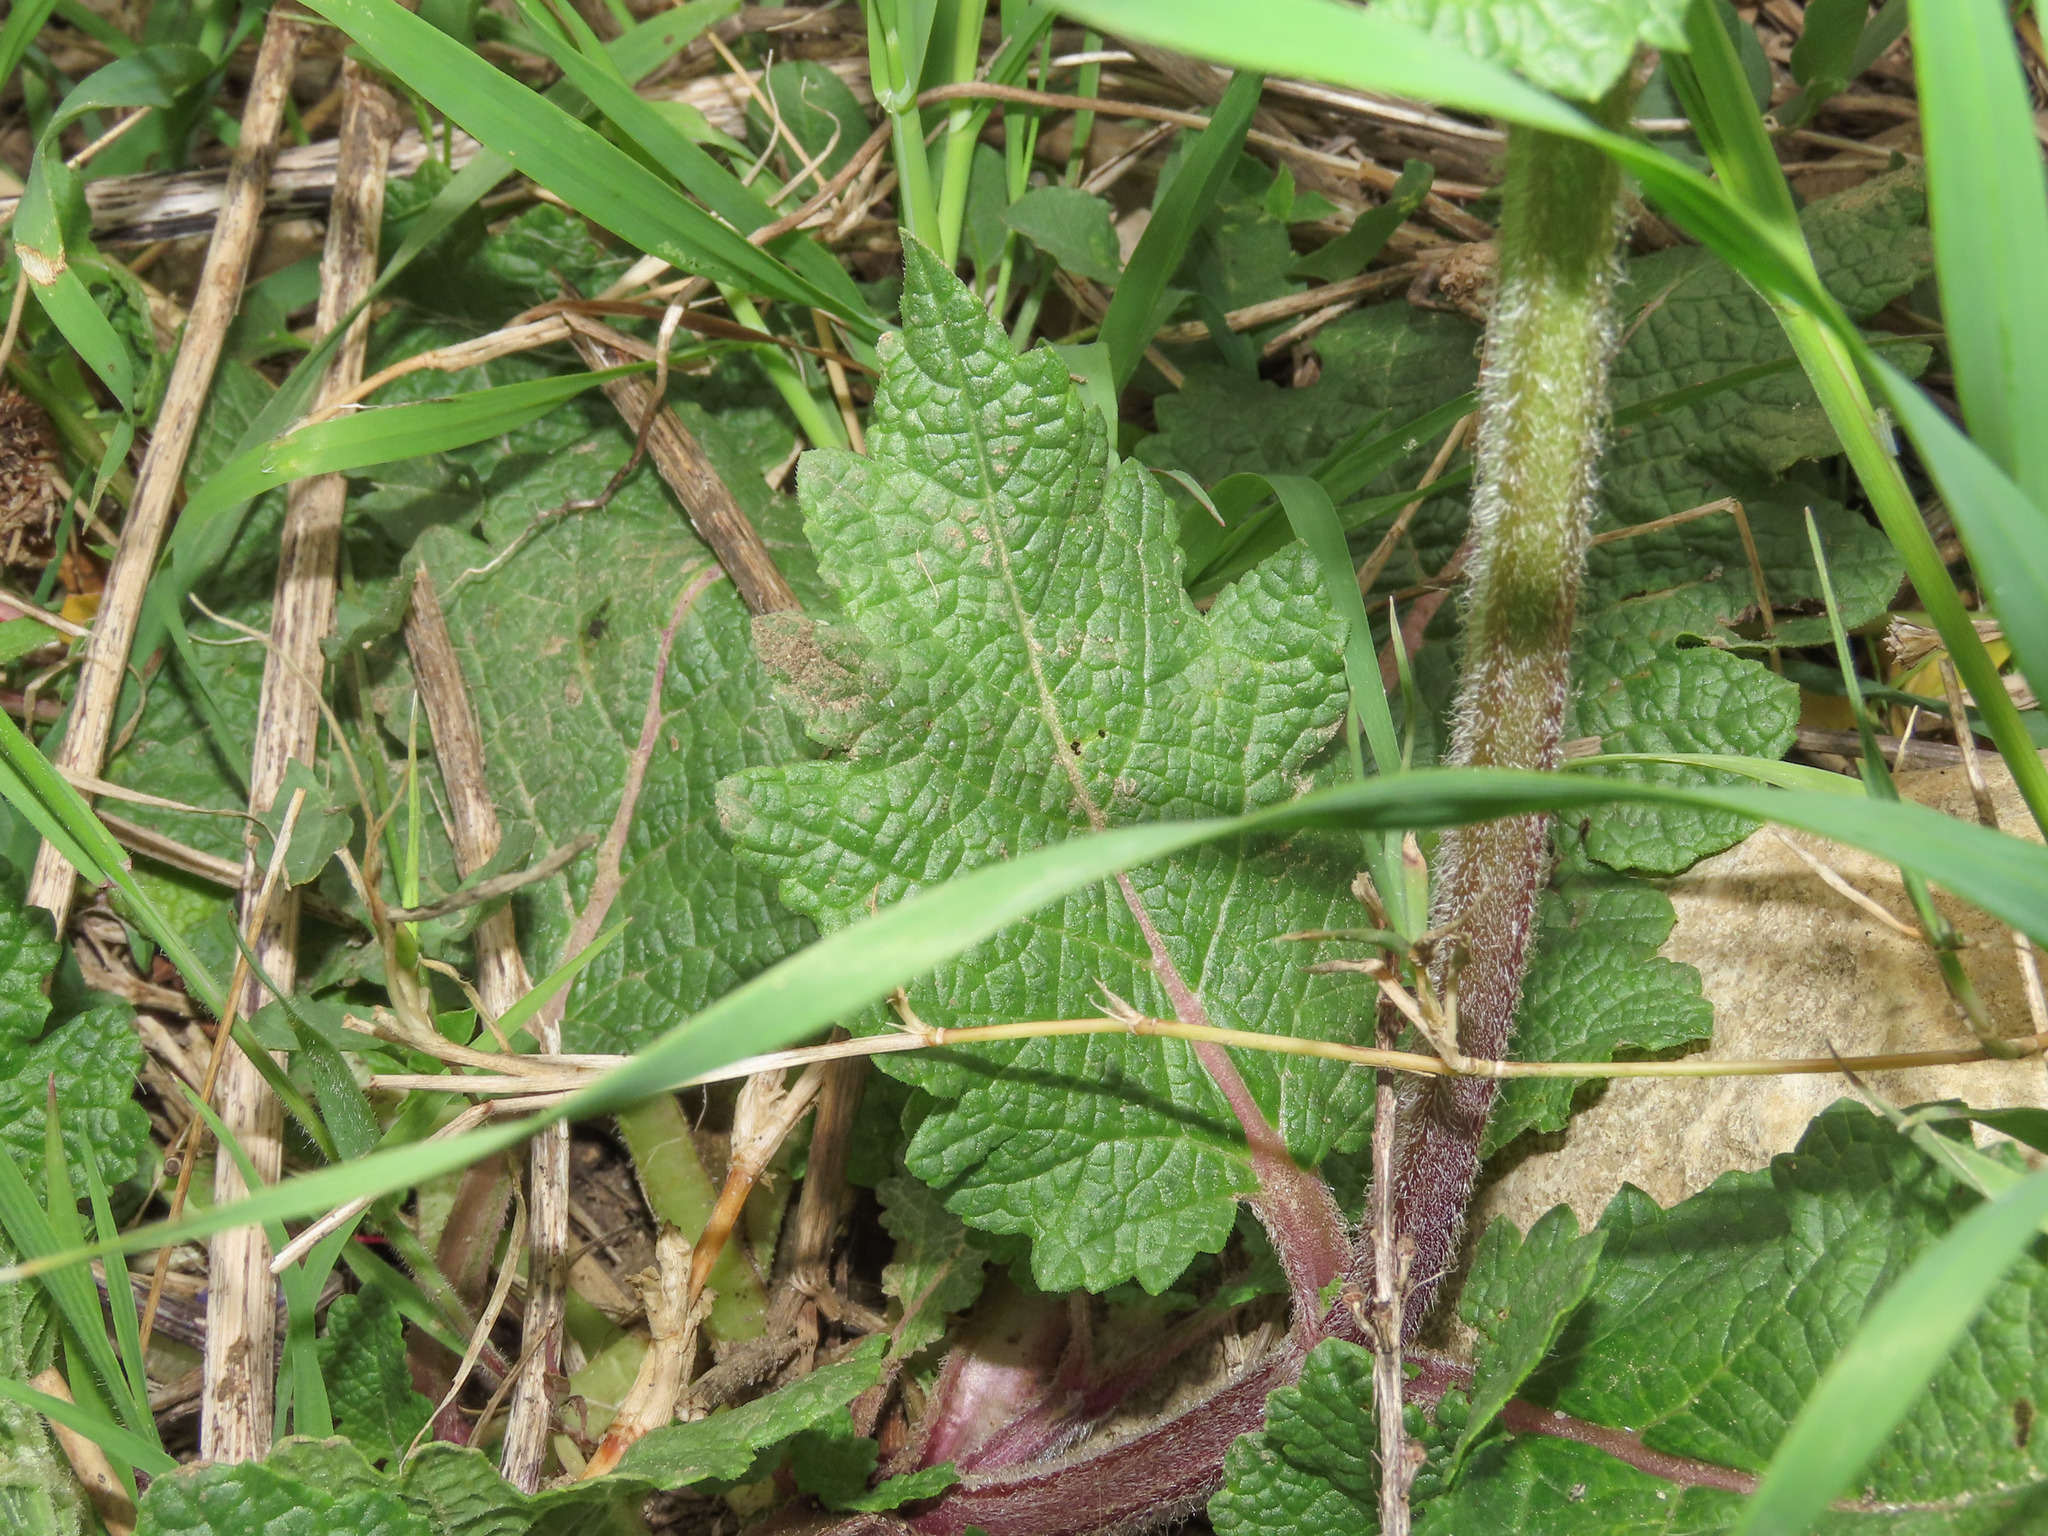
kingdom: Plantae
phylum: Tracheophyta
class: Magnoliopsida
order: Lamiales
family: Lamiaceae
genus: Salvia
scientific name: Salvia verbenaca
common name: Wild clary
